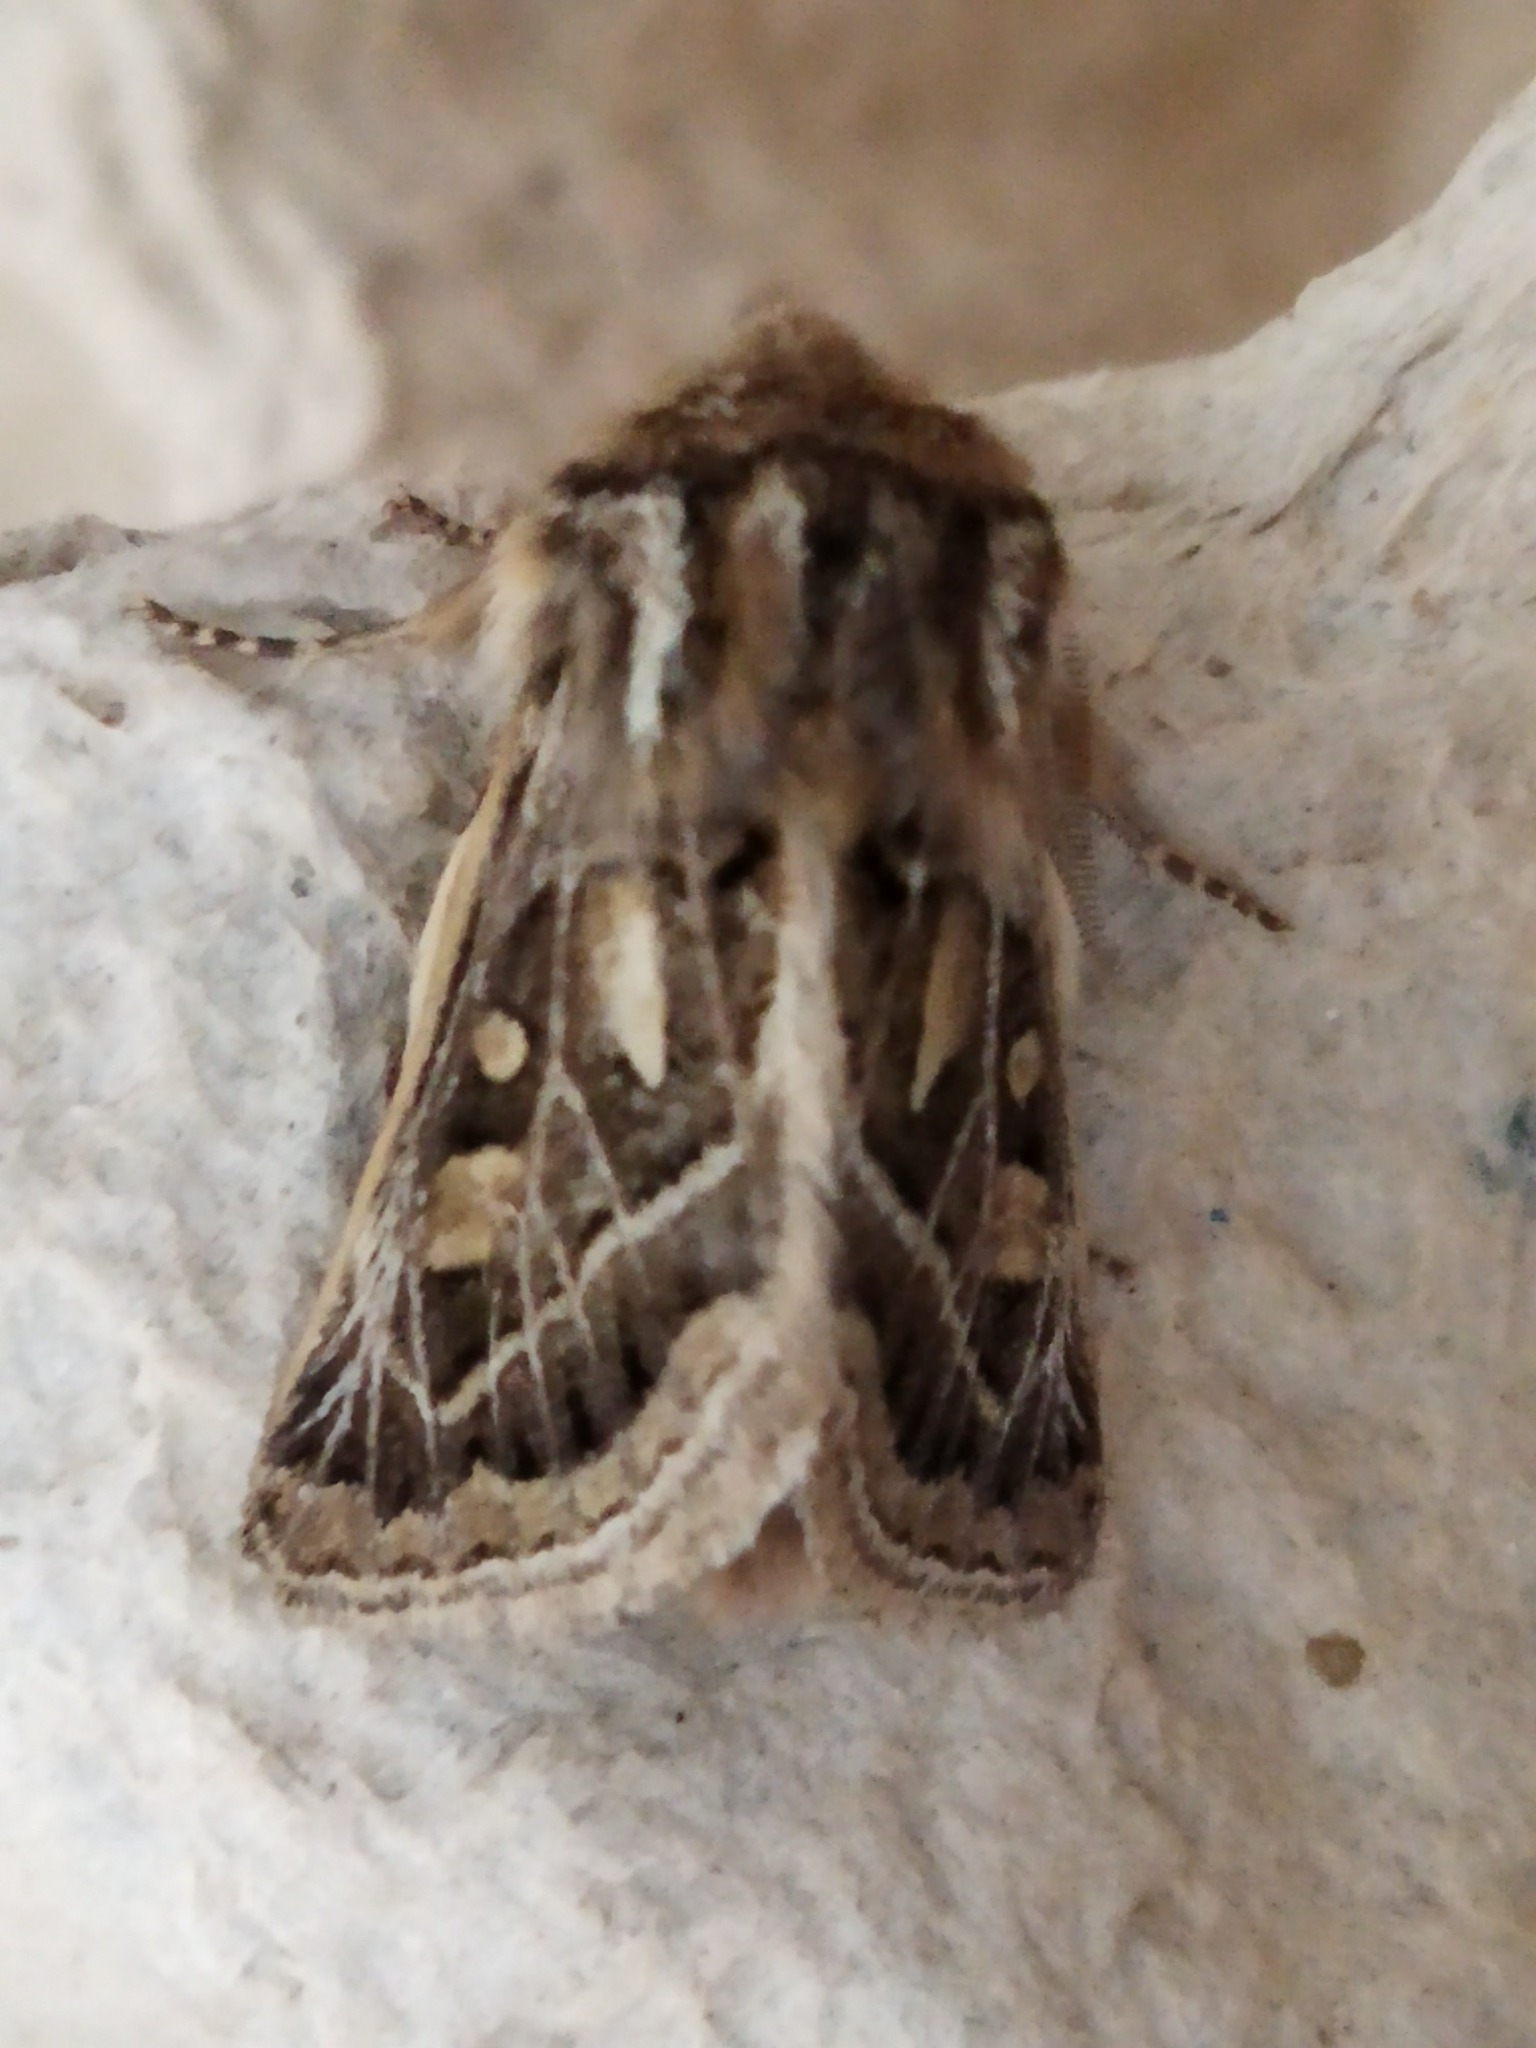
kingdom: Animalia
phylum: Arthropoda
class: Insecta
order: Lepidoptera
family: Noctuidae
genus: Ulochlaena
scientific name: Ulochlaena hirta
